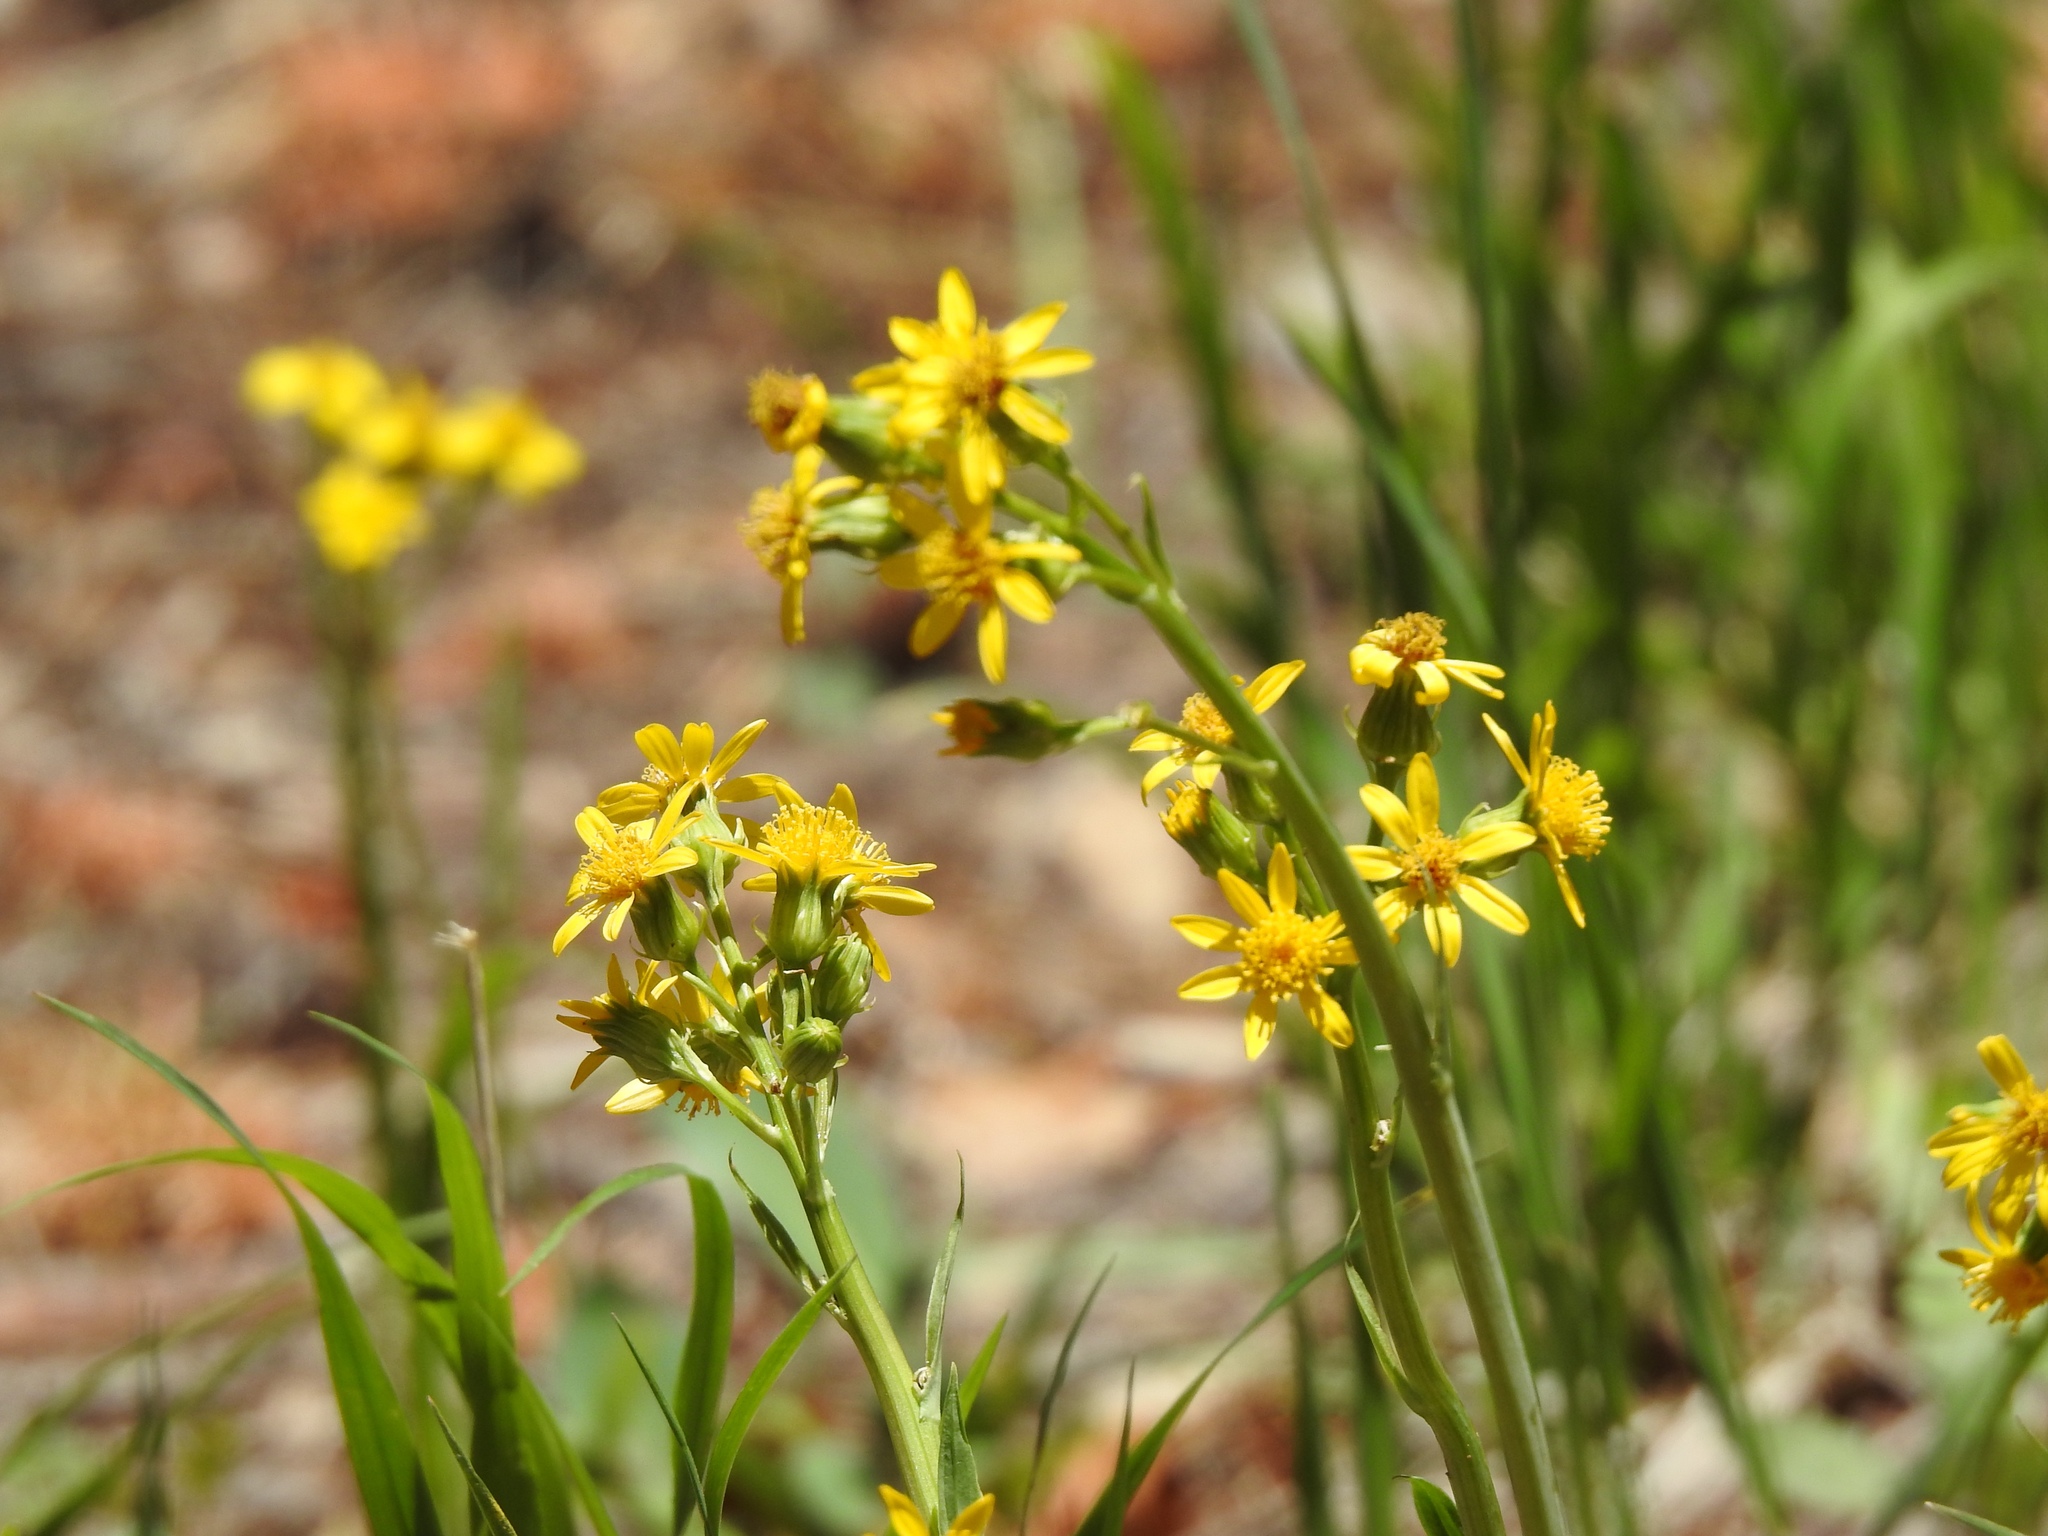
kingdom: Plantae
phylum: Tracheophyta
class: Magnoliopsida
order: Asterales
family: Asteraceae
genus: Senecio
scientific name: Senecio wootonii
